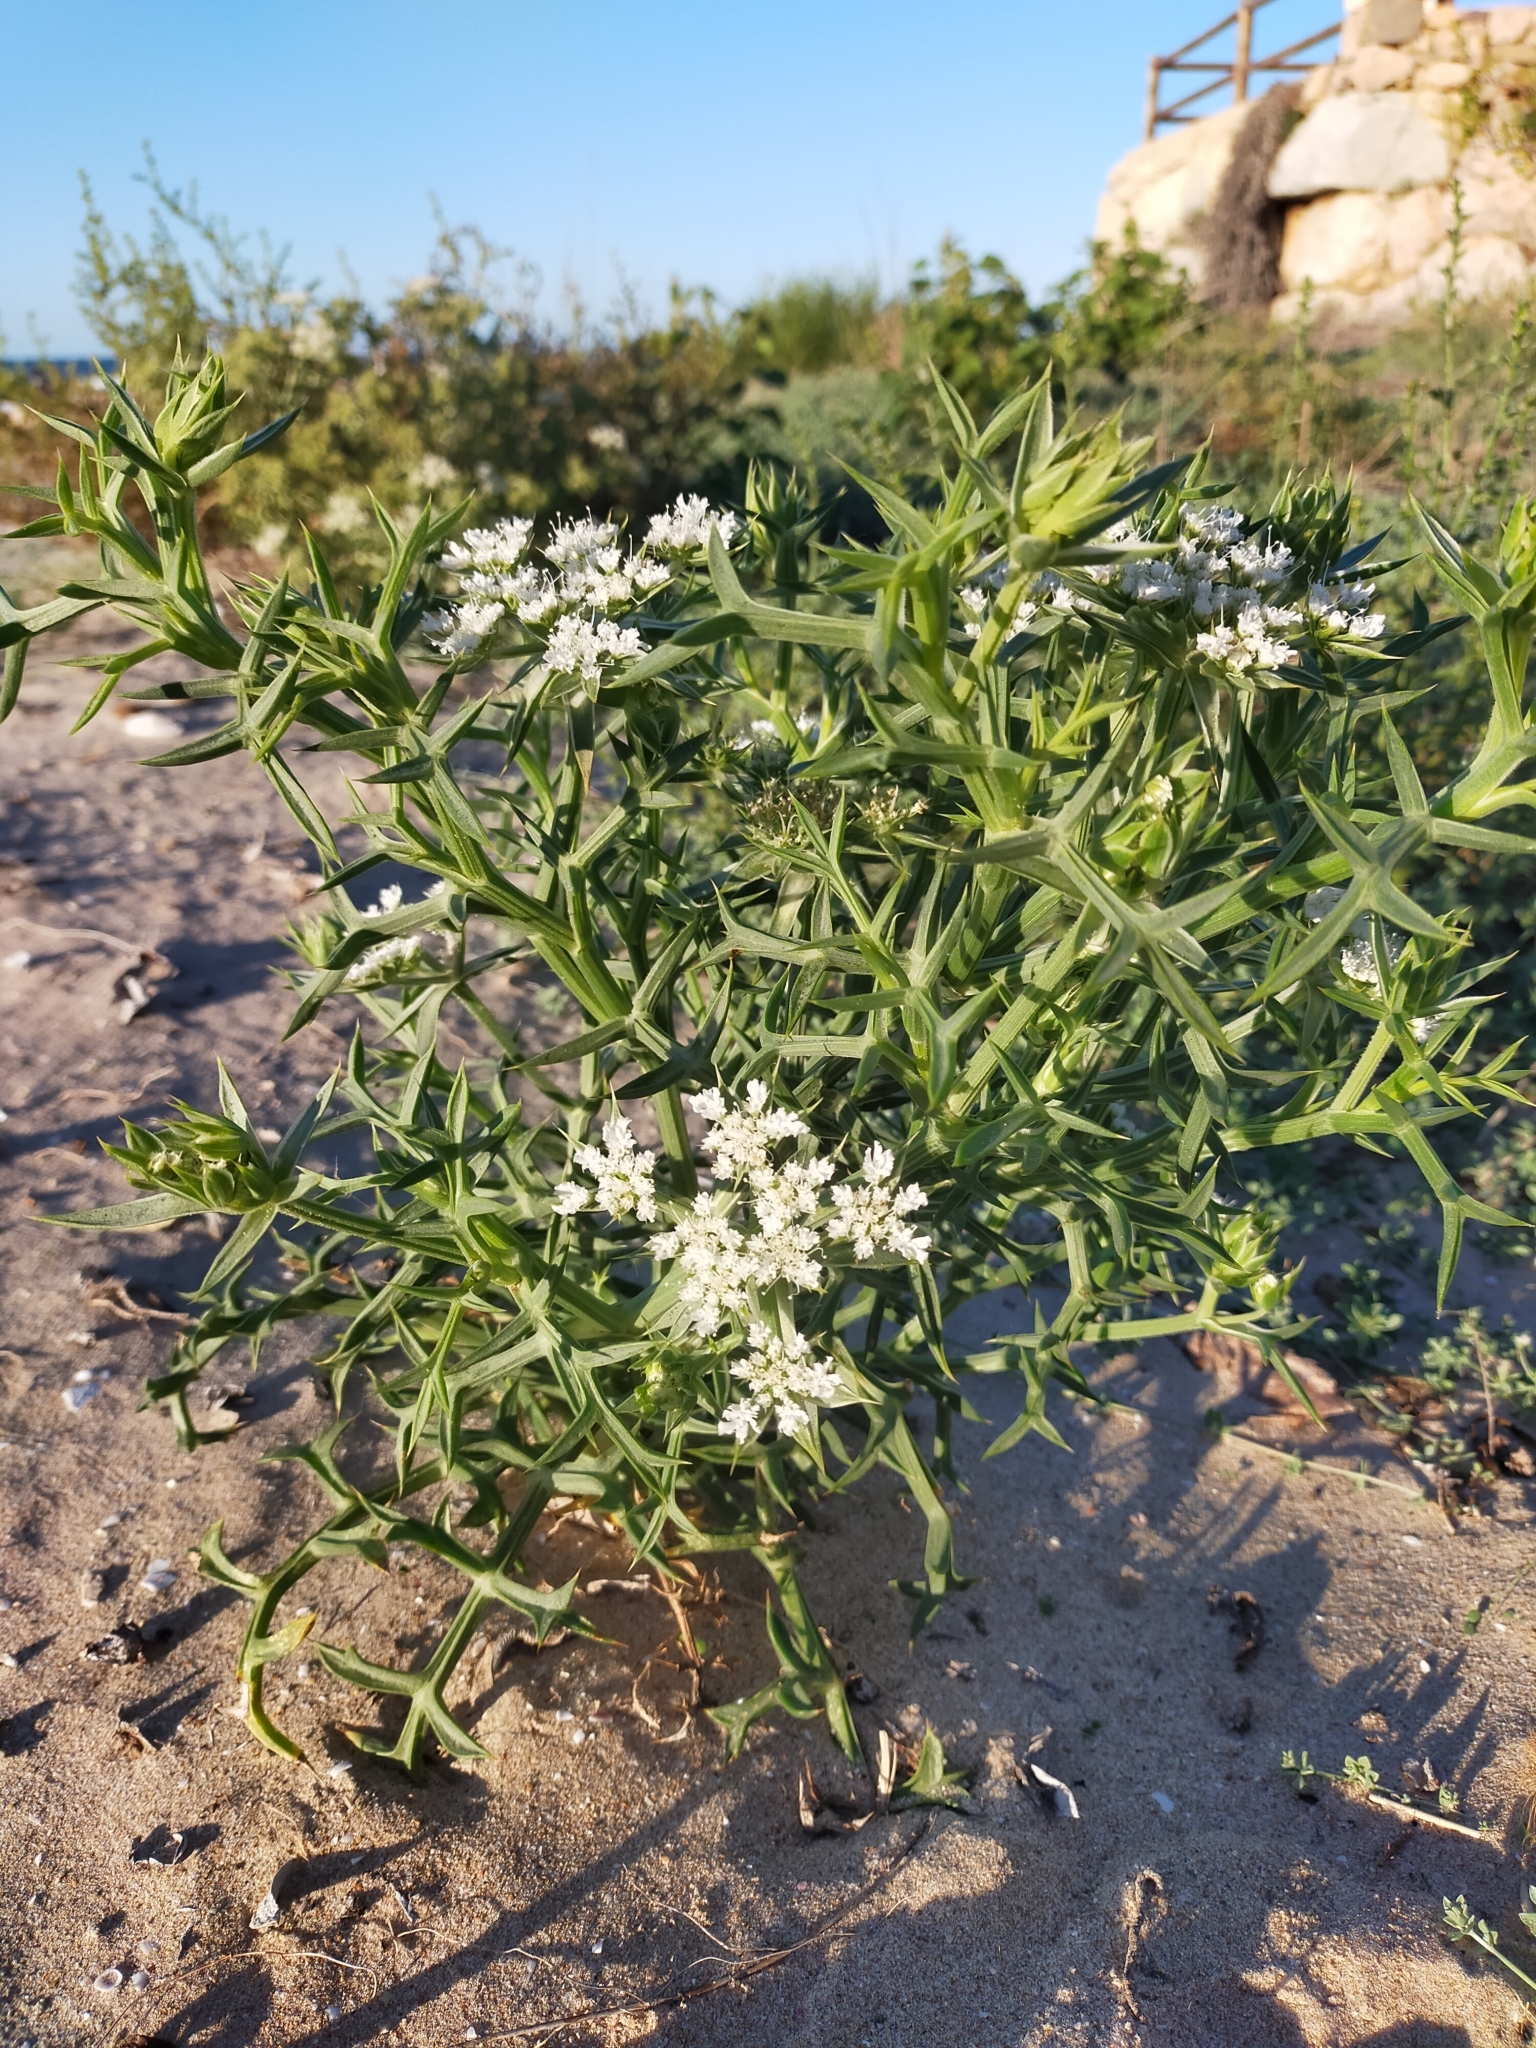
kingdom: Plantae
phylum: Tracheophyta
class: Magnoliopsida
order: Apiales
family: Apiaceae
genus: Echinophora
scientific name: Echinophora spinosa
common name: Prickly samphire
